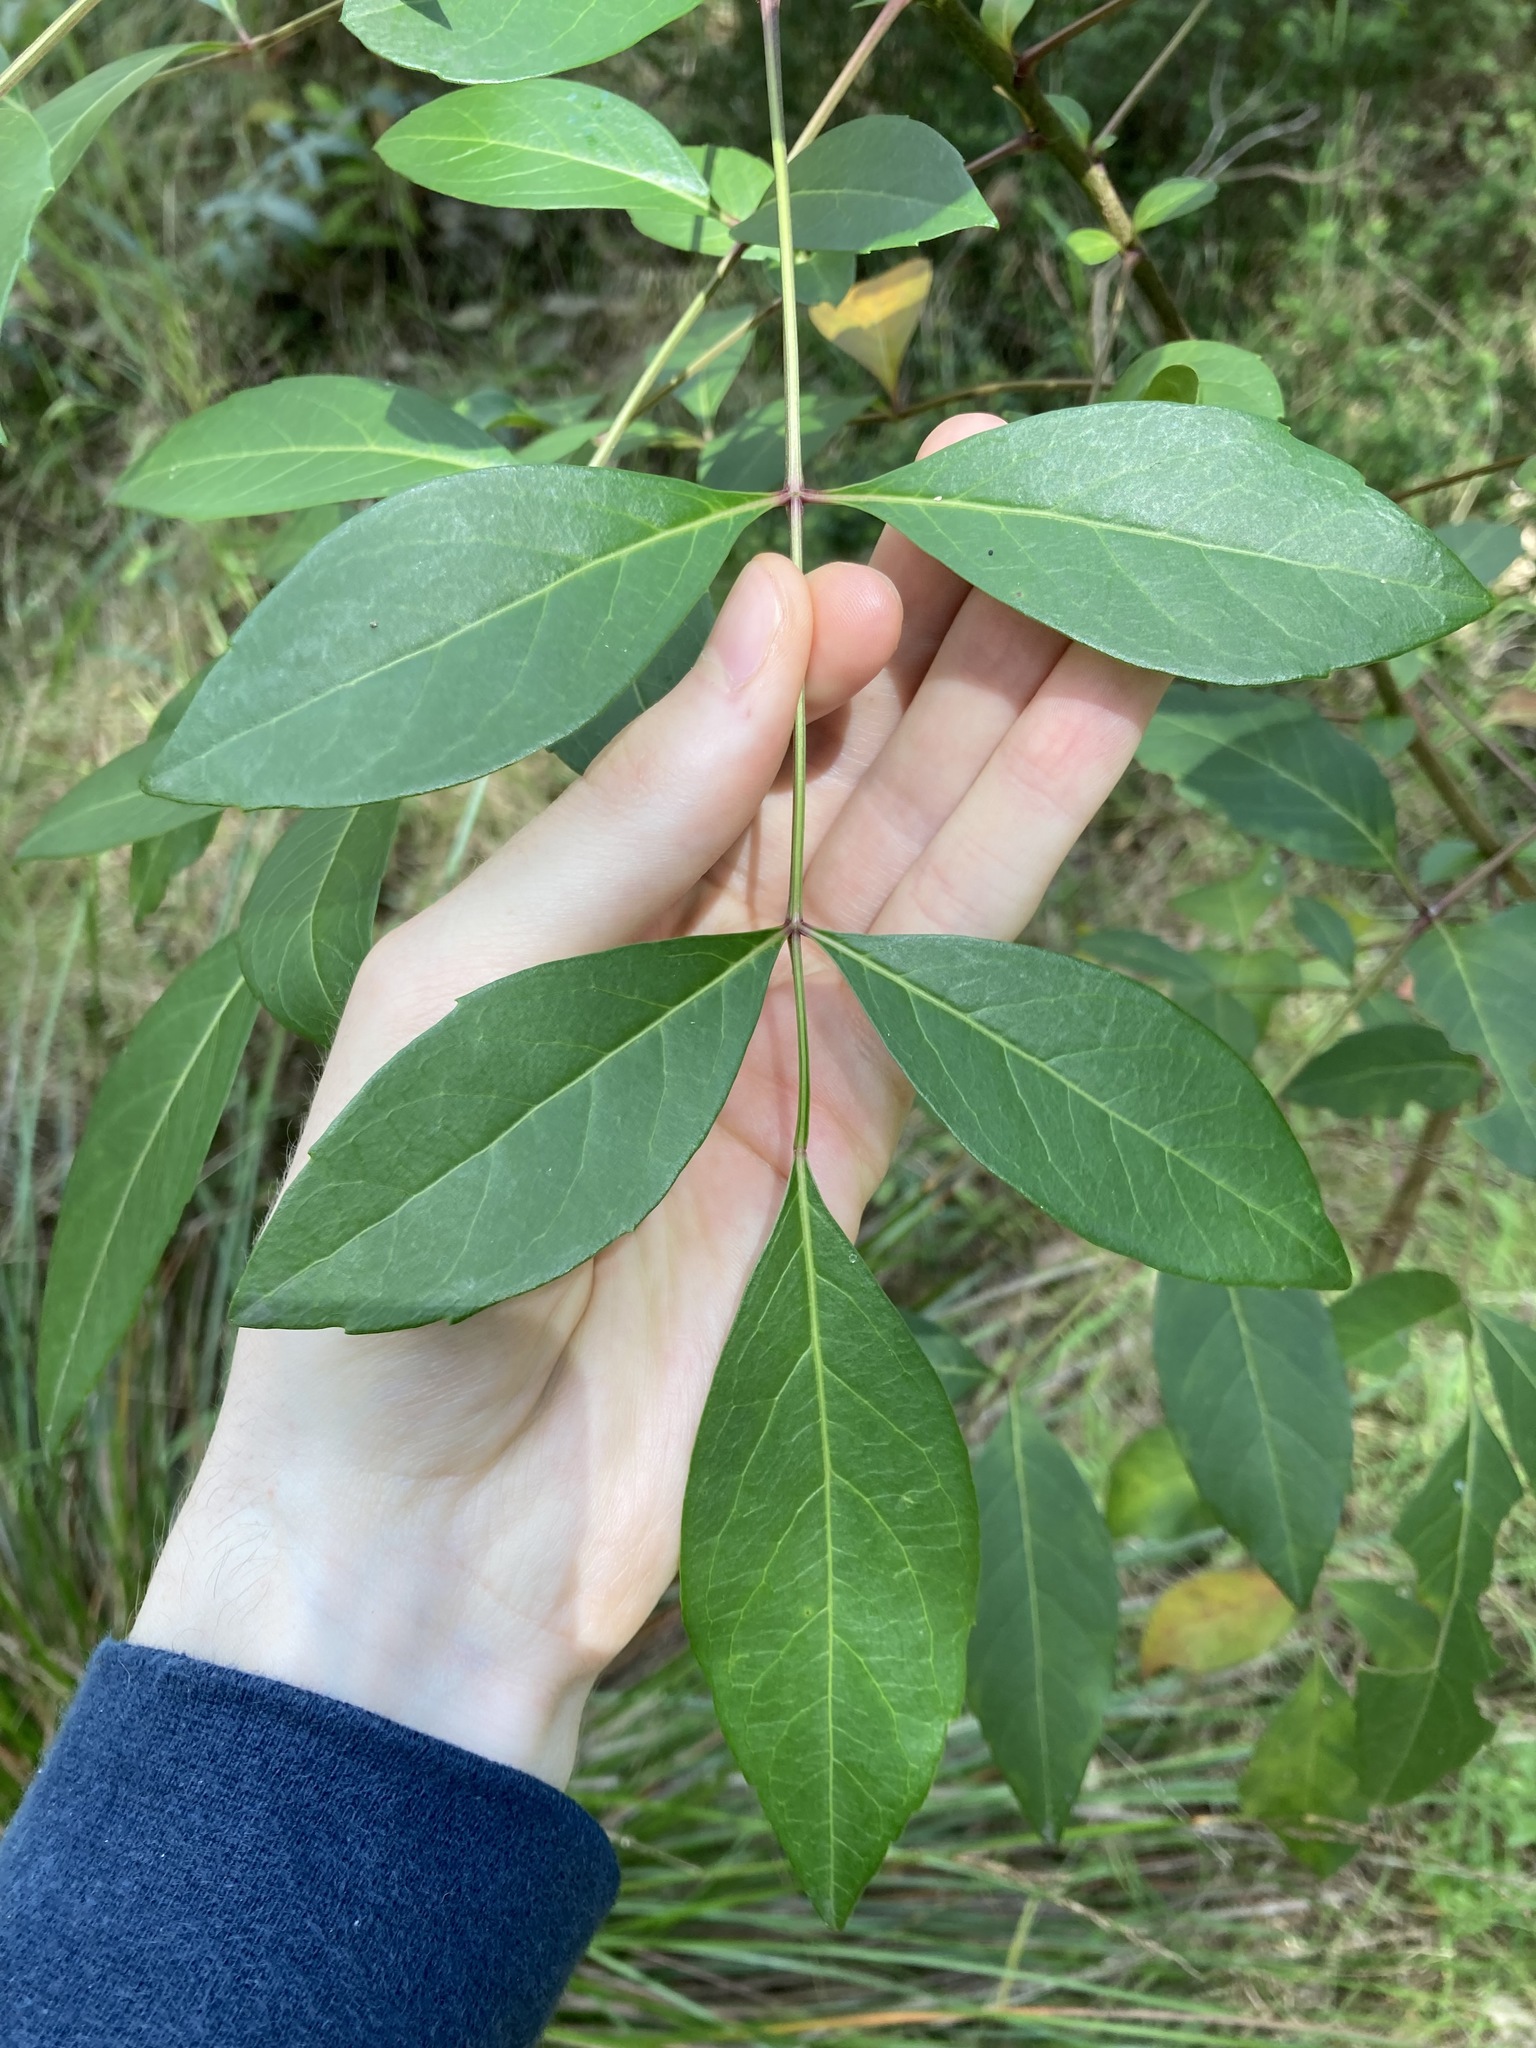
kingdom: Plantae
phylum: Tracheophyta
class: Magnoliopsida
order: Apiales
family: Araliaceae
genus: Polyscias
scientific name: Polyscias sambucifolia
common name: Elderberry-ash
